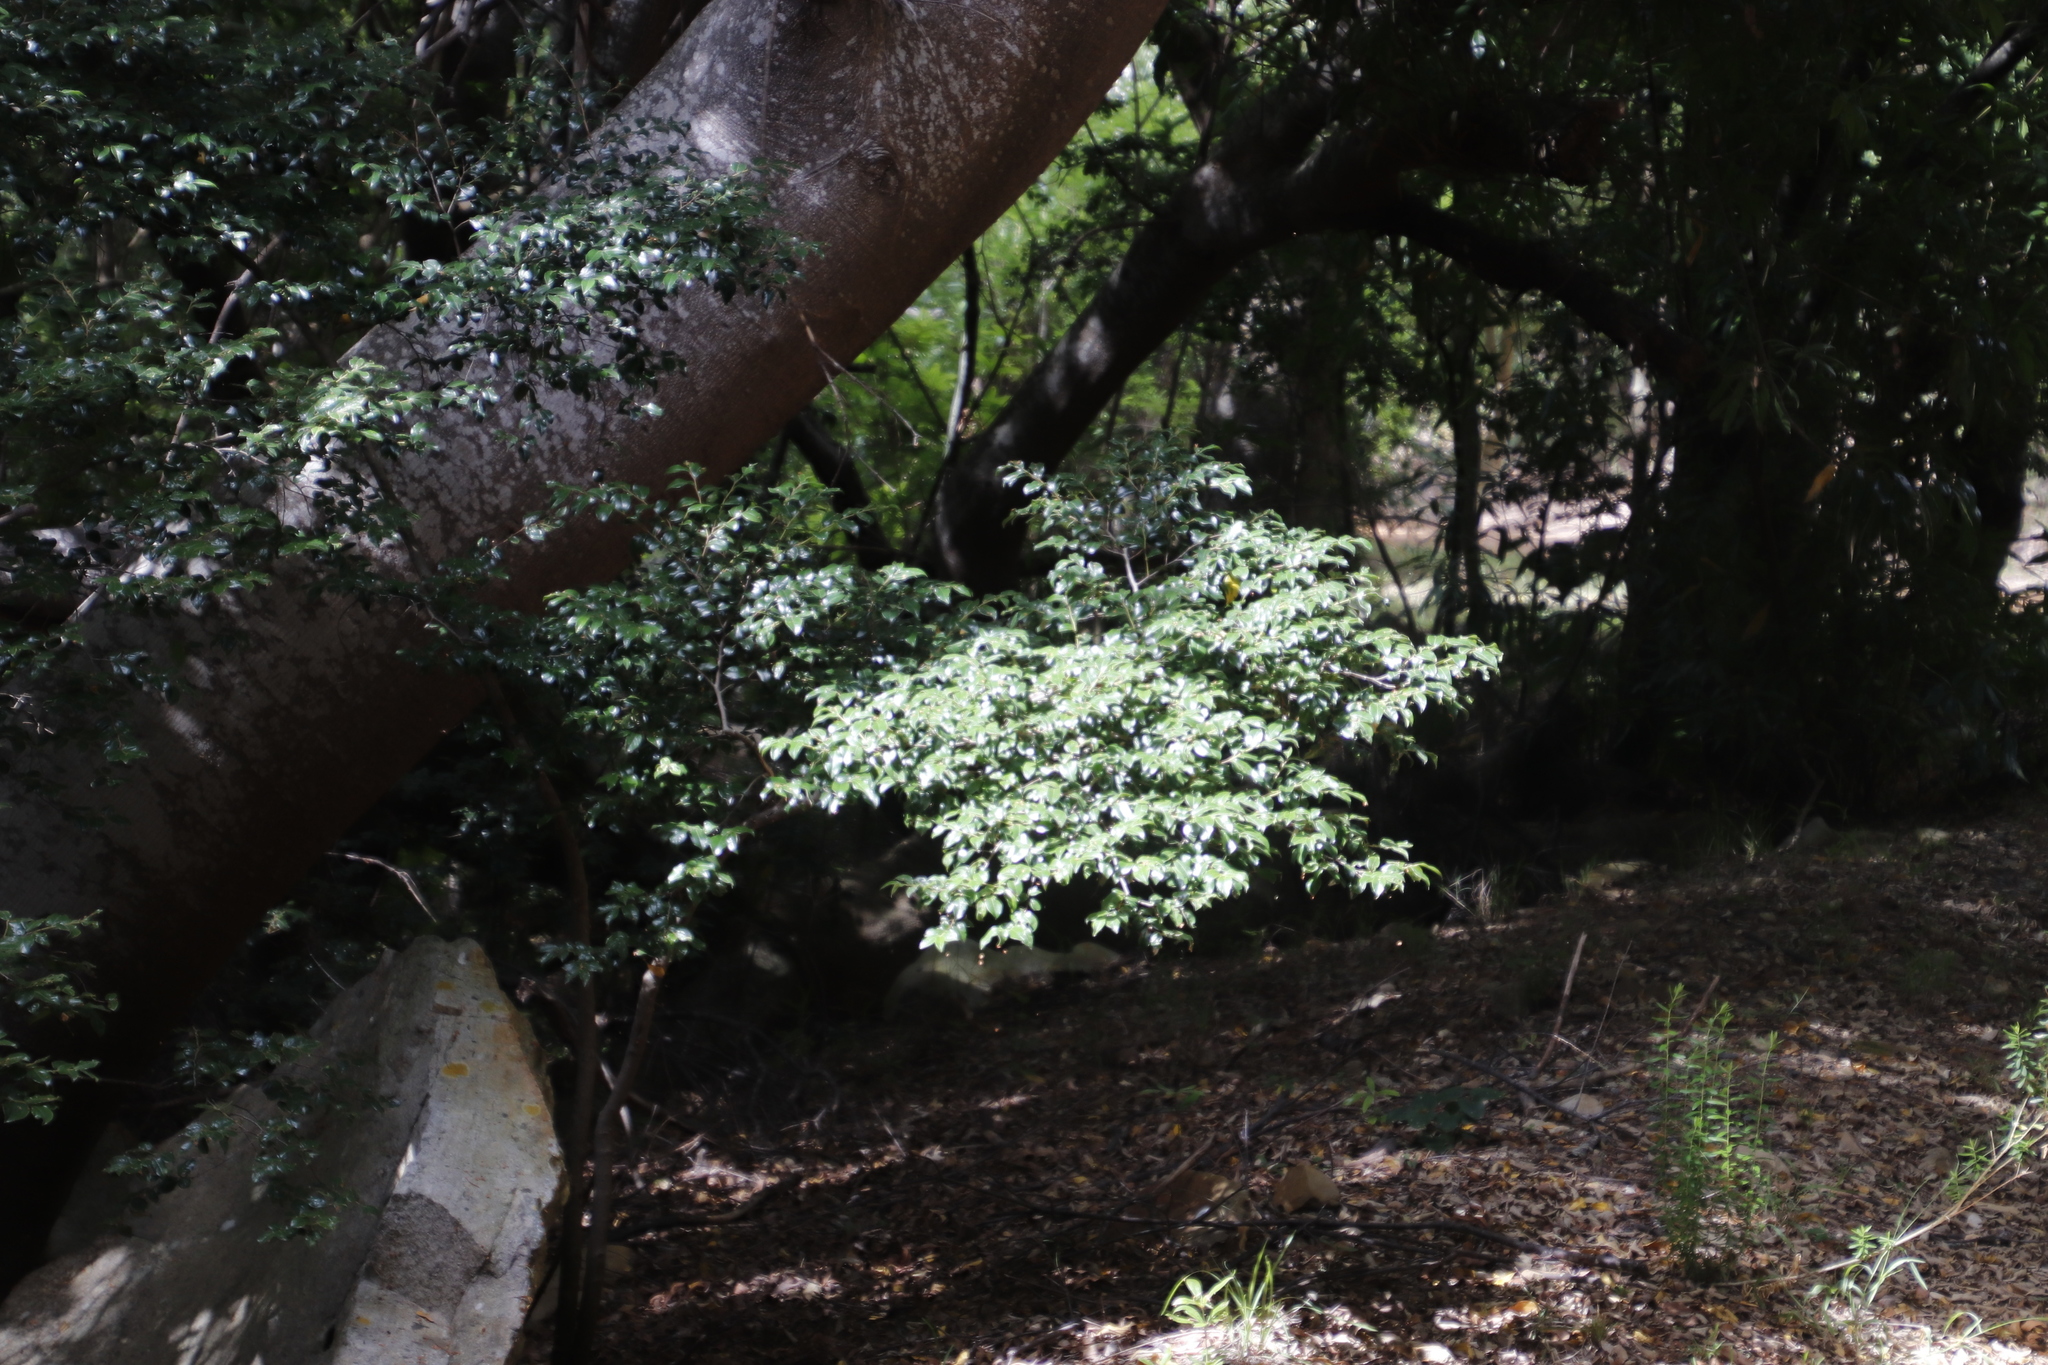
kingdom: Plantae
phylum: Tracheophyta
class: Magnoliopsida
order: Ericales
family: Ebenaceae
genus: Diospyros
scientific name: Diospyros whyteana
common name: Bladder-nut
